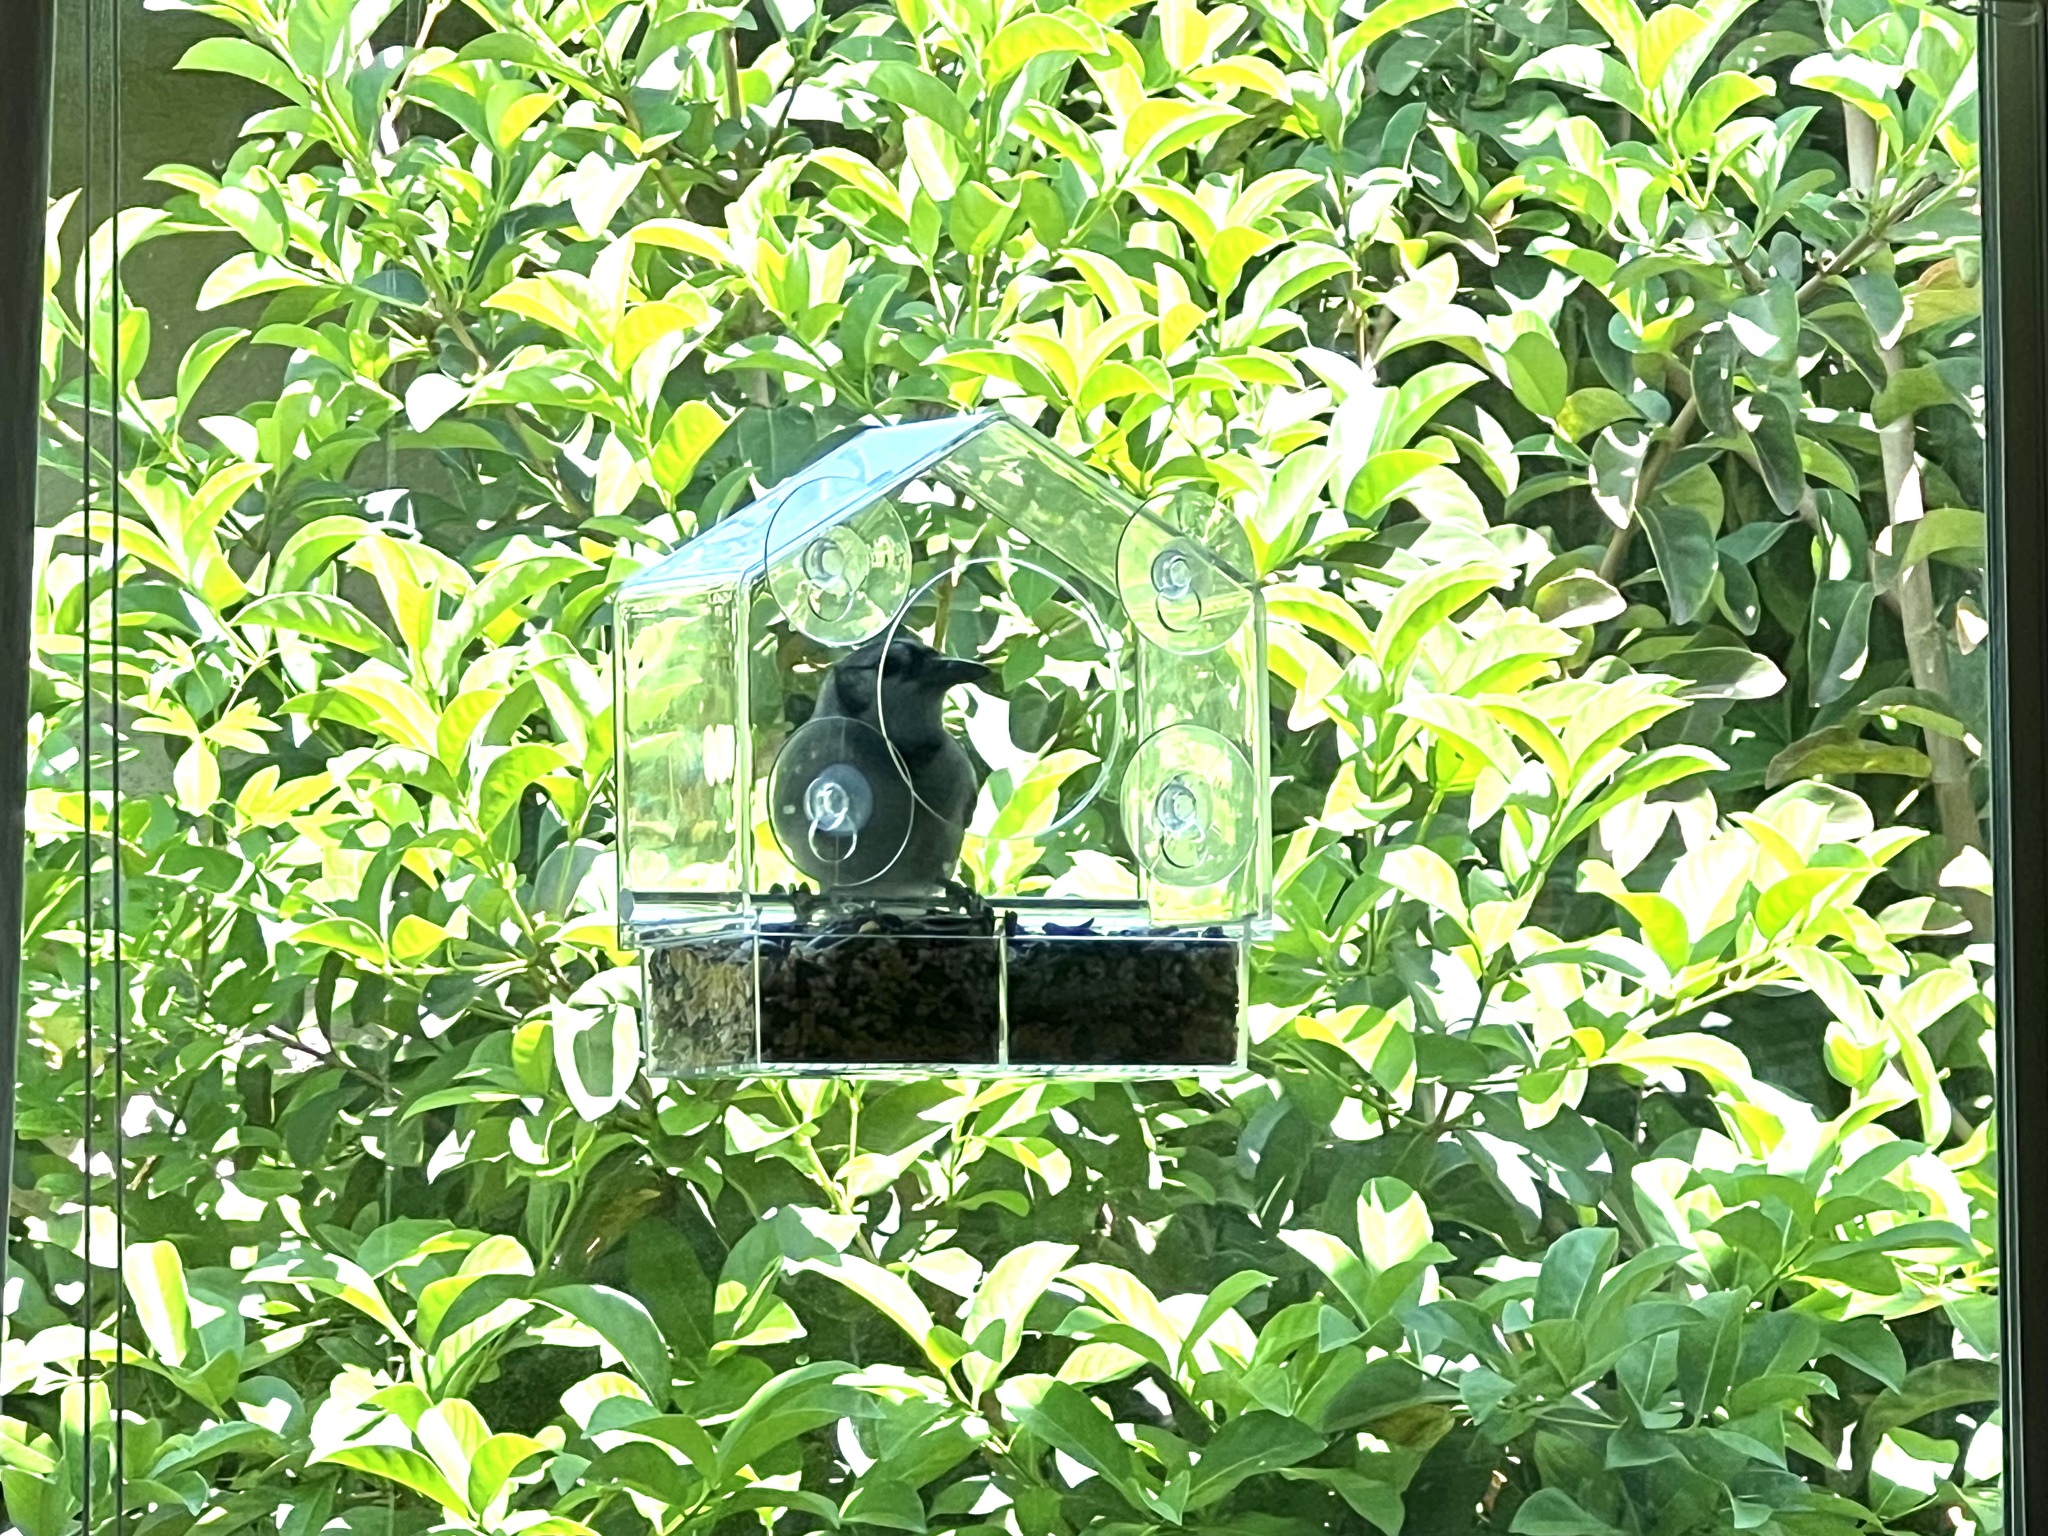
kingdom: Animalia
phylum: Chordata
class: Aves
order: Passeriformes
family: Corvidae
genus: Cyanocitta
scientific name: Cyanocitta cristata
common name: Blue jay
